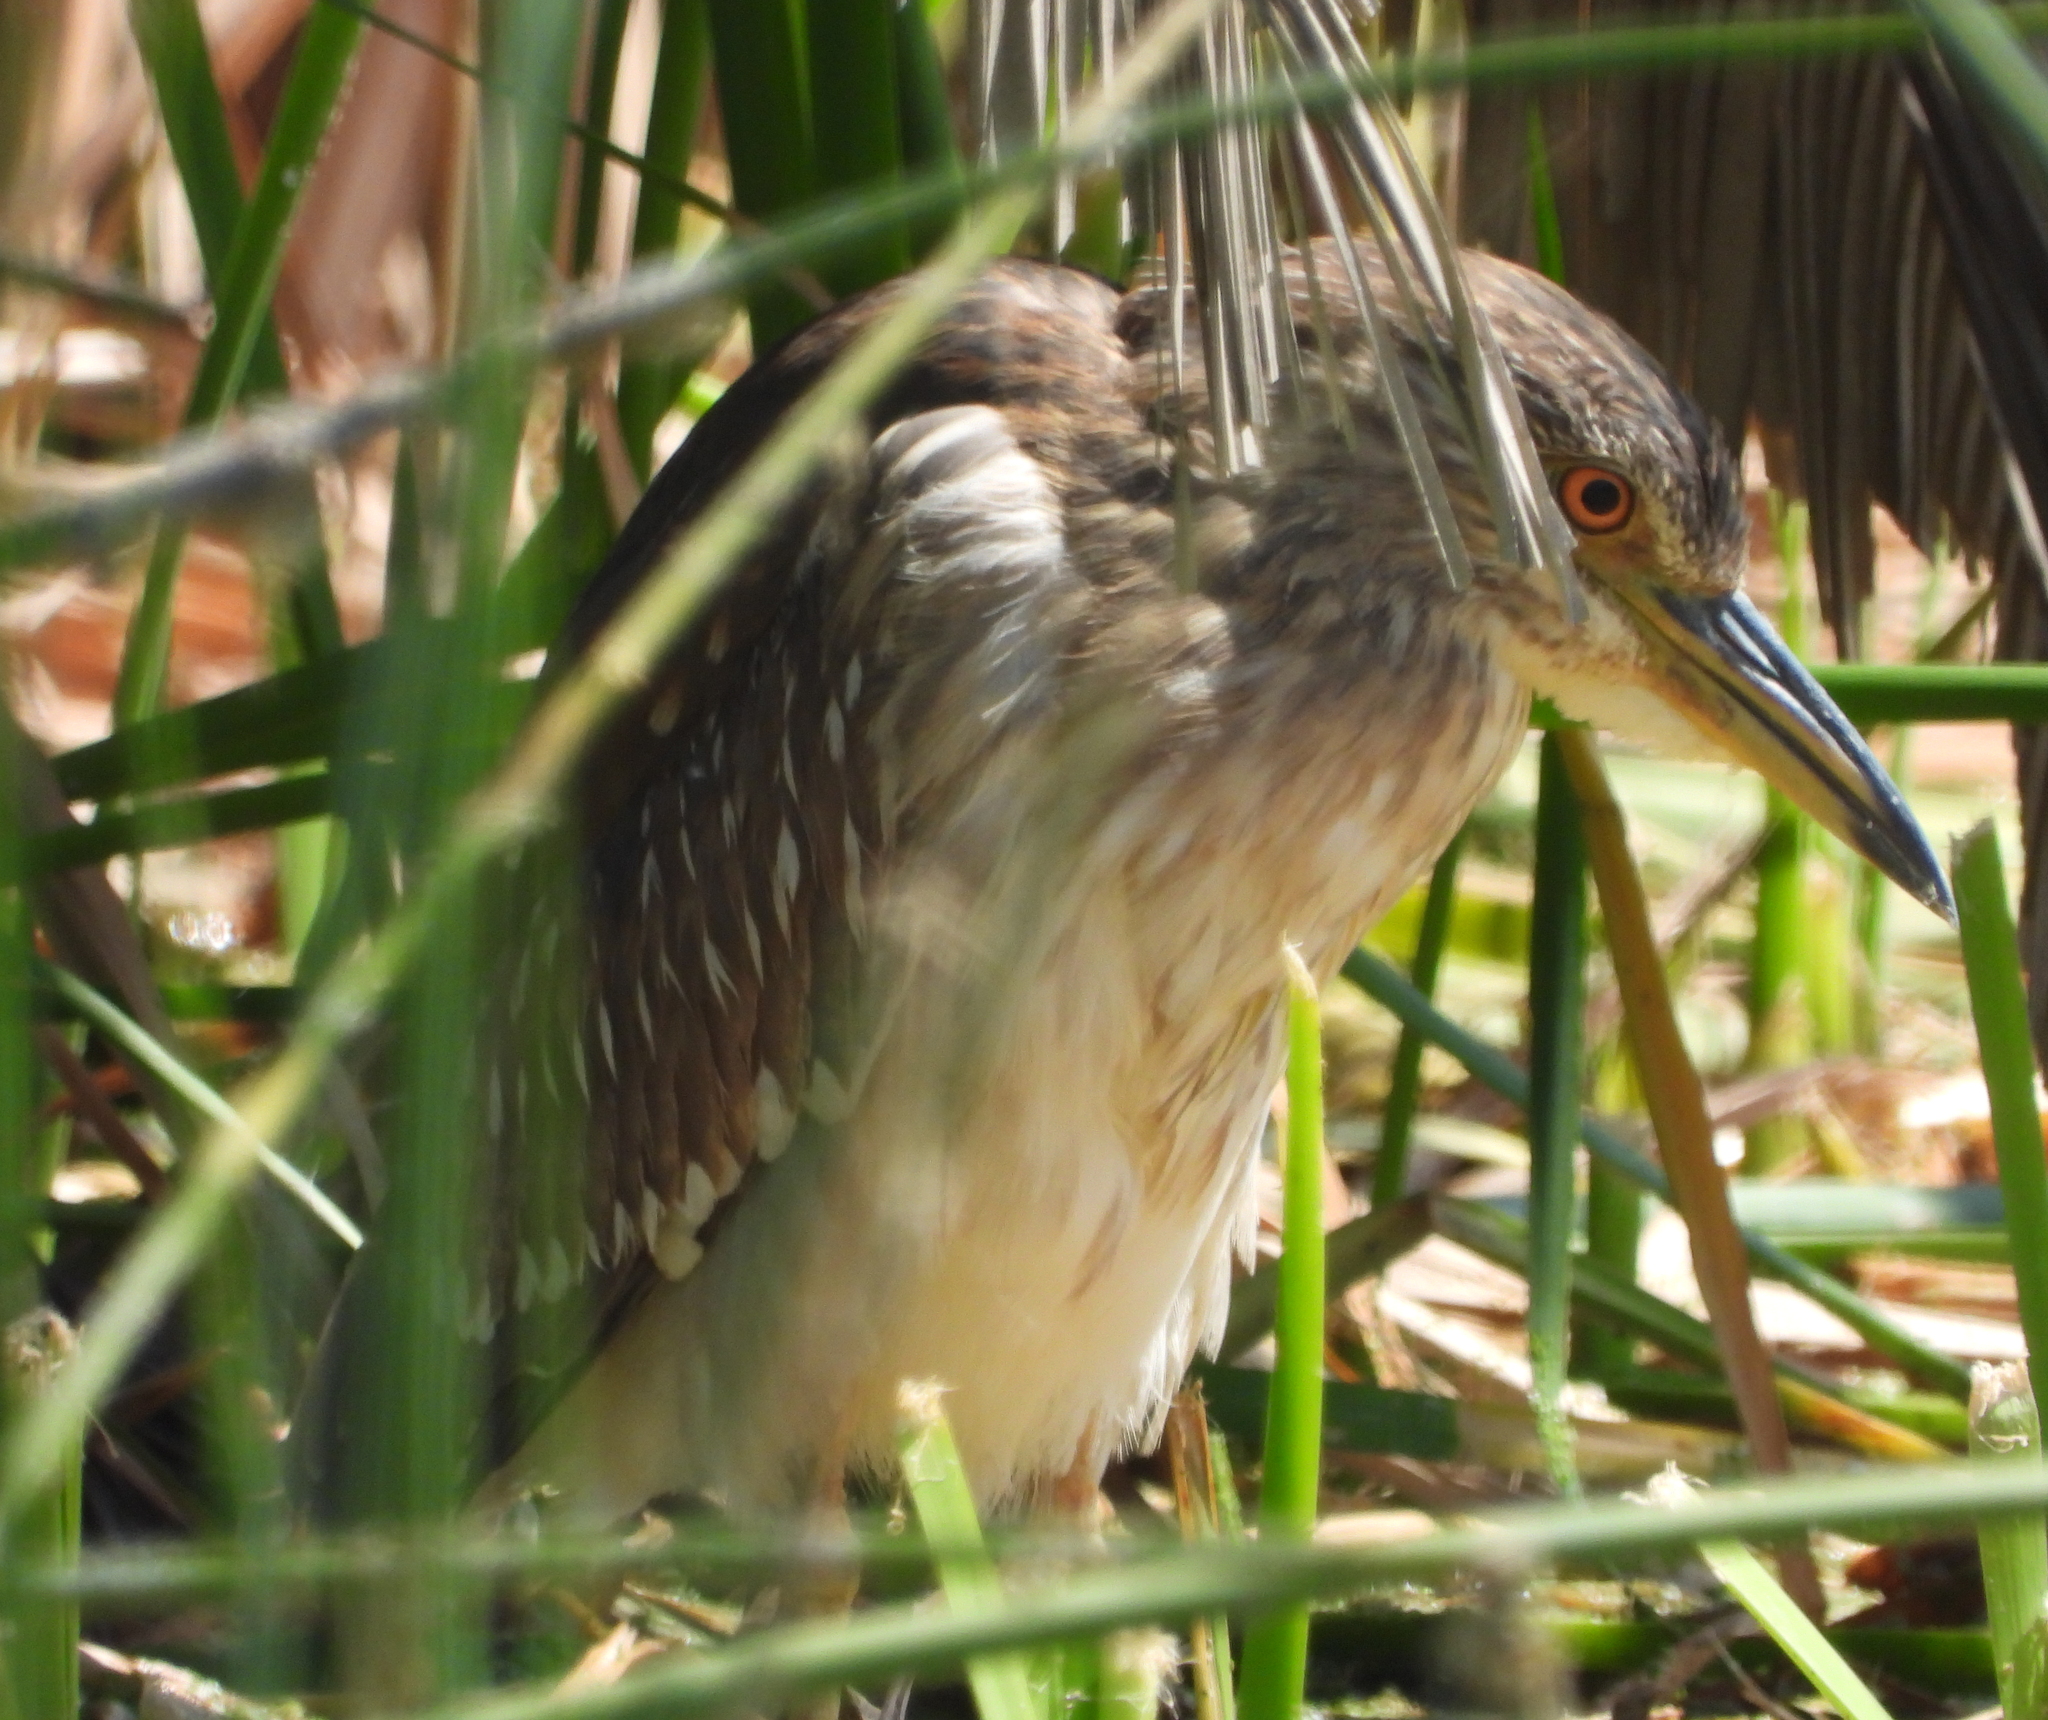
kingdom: Animalia
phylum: Chordata
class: Aves
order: Pelecaniformes
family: Ardeidae
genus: Nycticorax
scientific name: Nycticorax nycticorax
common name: Black-crowned night heron
